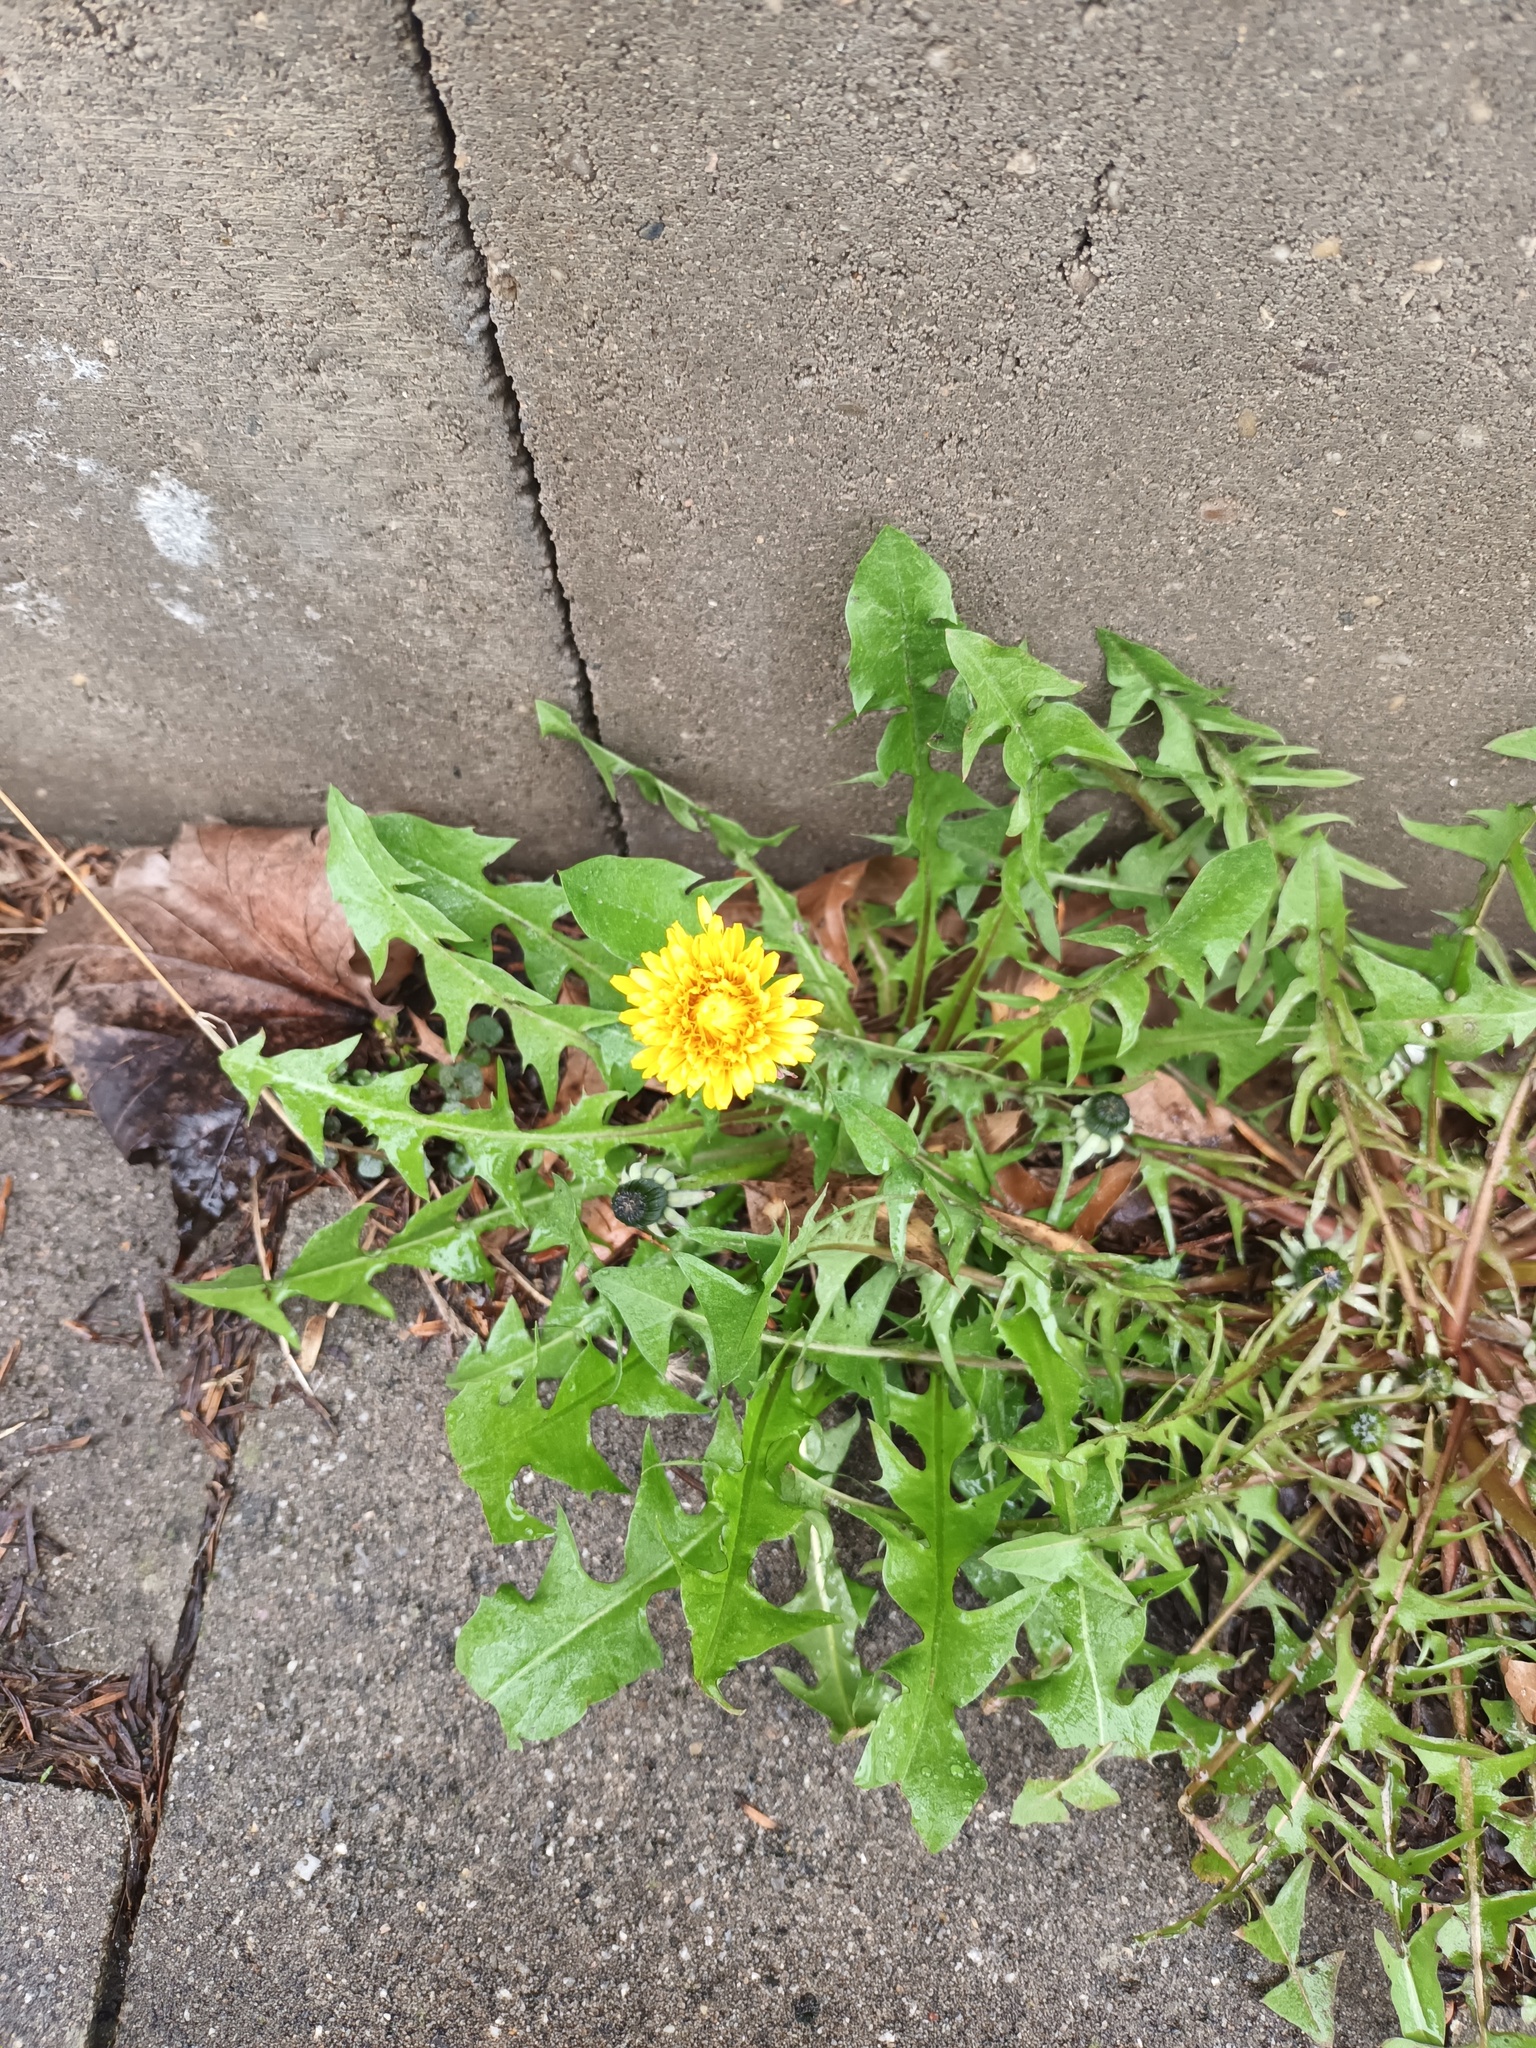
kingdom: Plantae
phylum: Tracheophyta
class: Magnoliopsida
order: Asterales
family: Asteraceae
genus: Taraxacum
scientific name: Taraxacum
